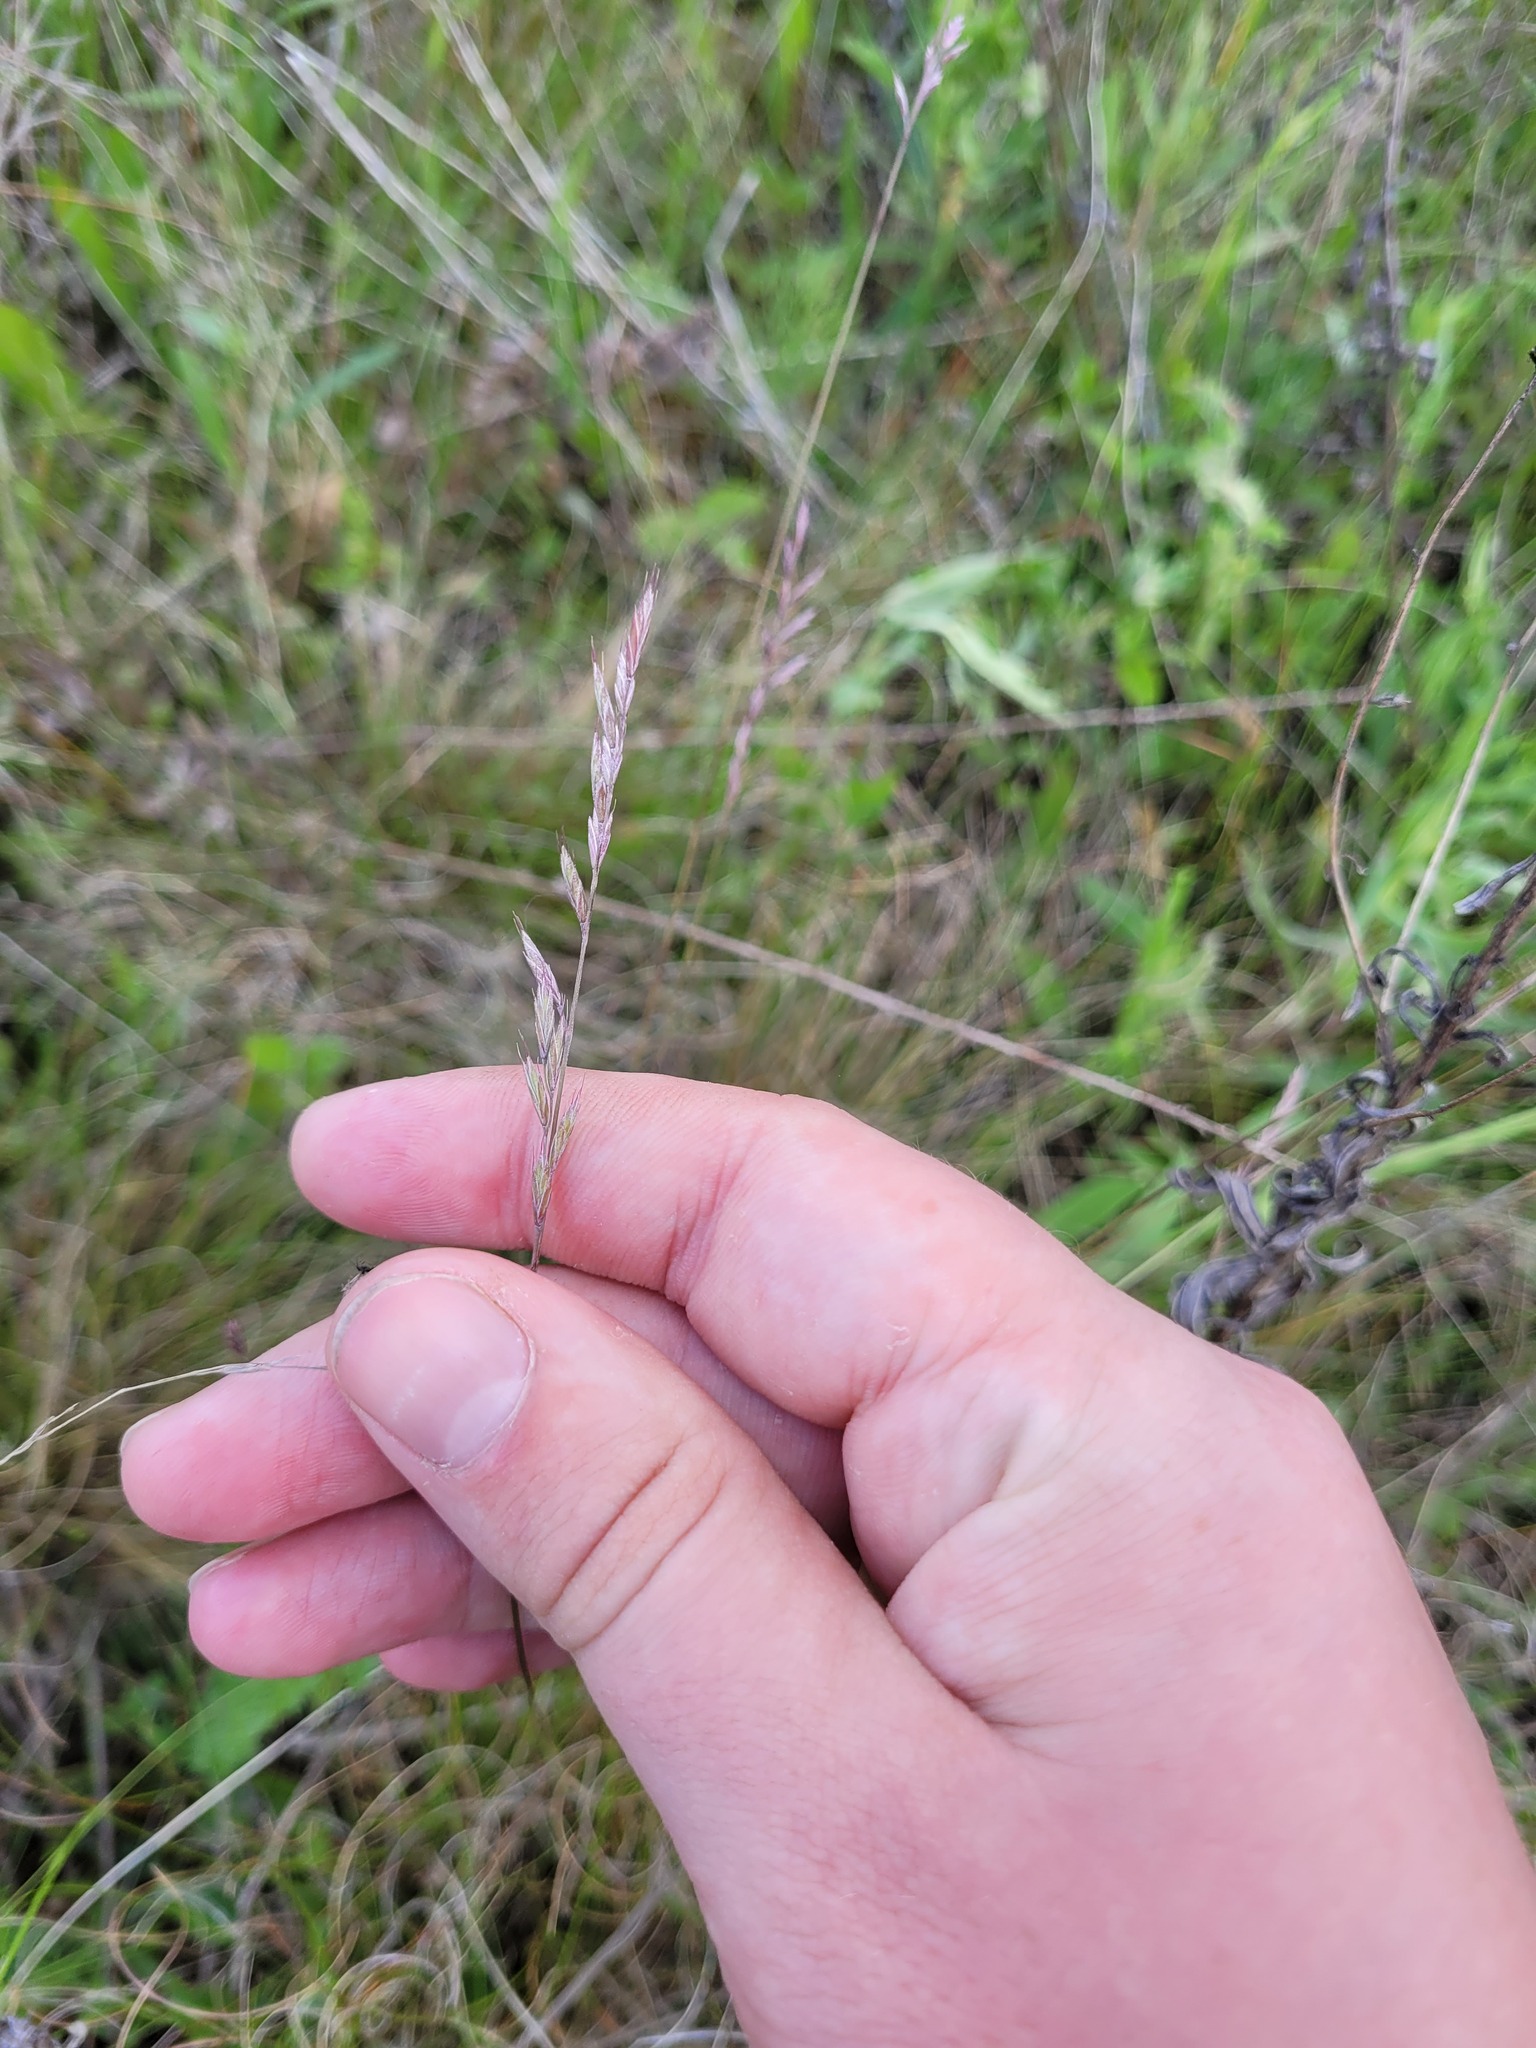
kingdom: Plantae
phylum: Tracheophyta
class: Liliopsida
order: Poales
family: Poaceae
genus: Festuca
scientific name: Festuca pseudovina
